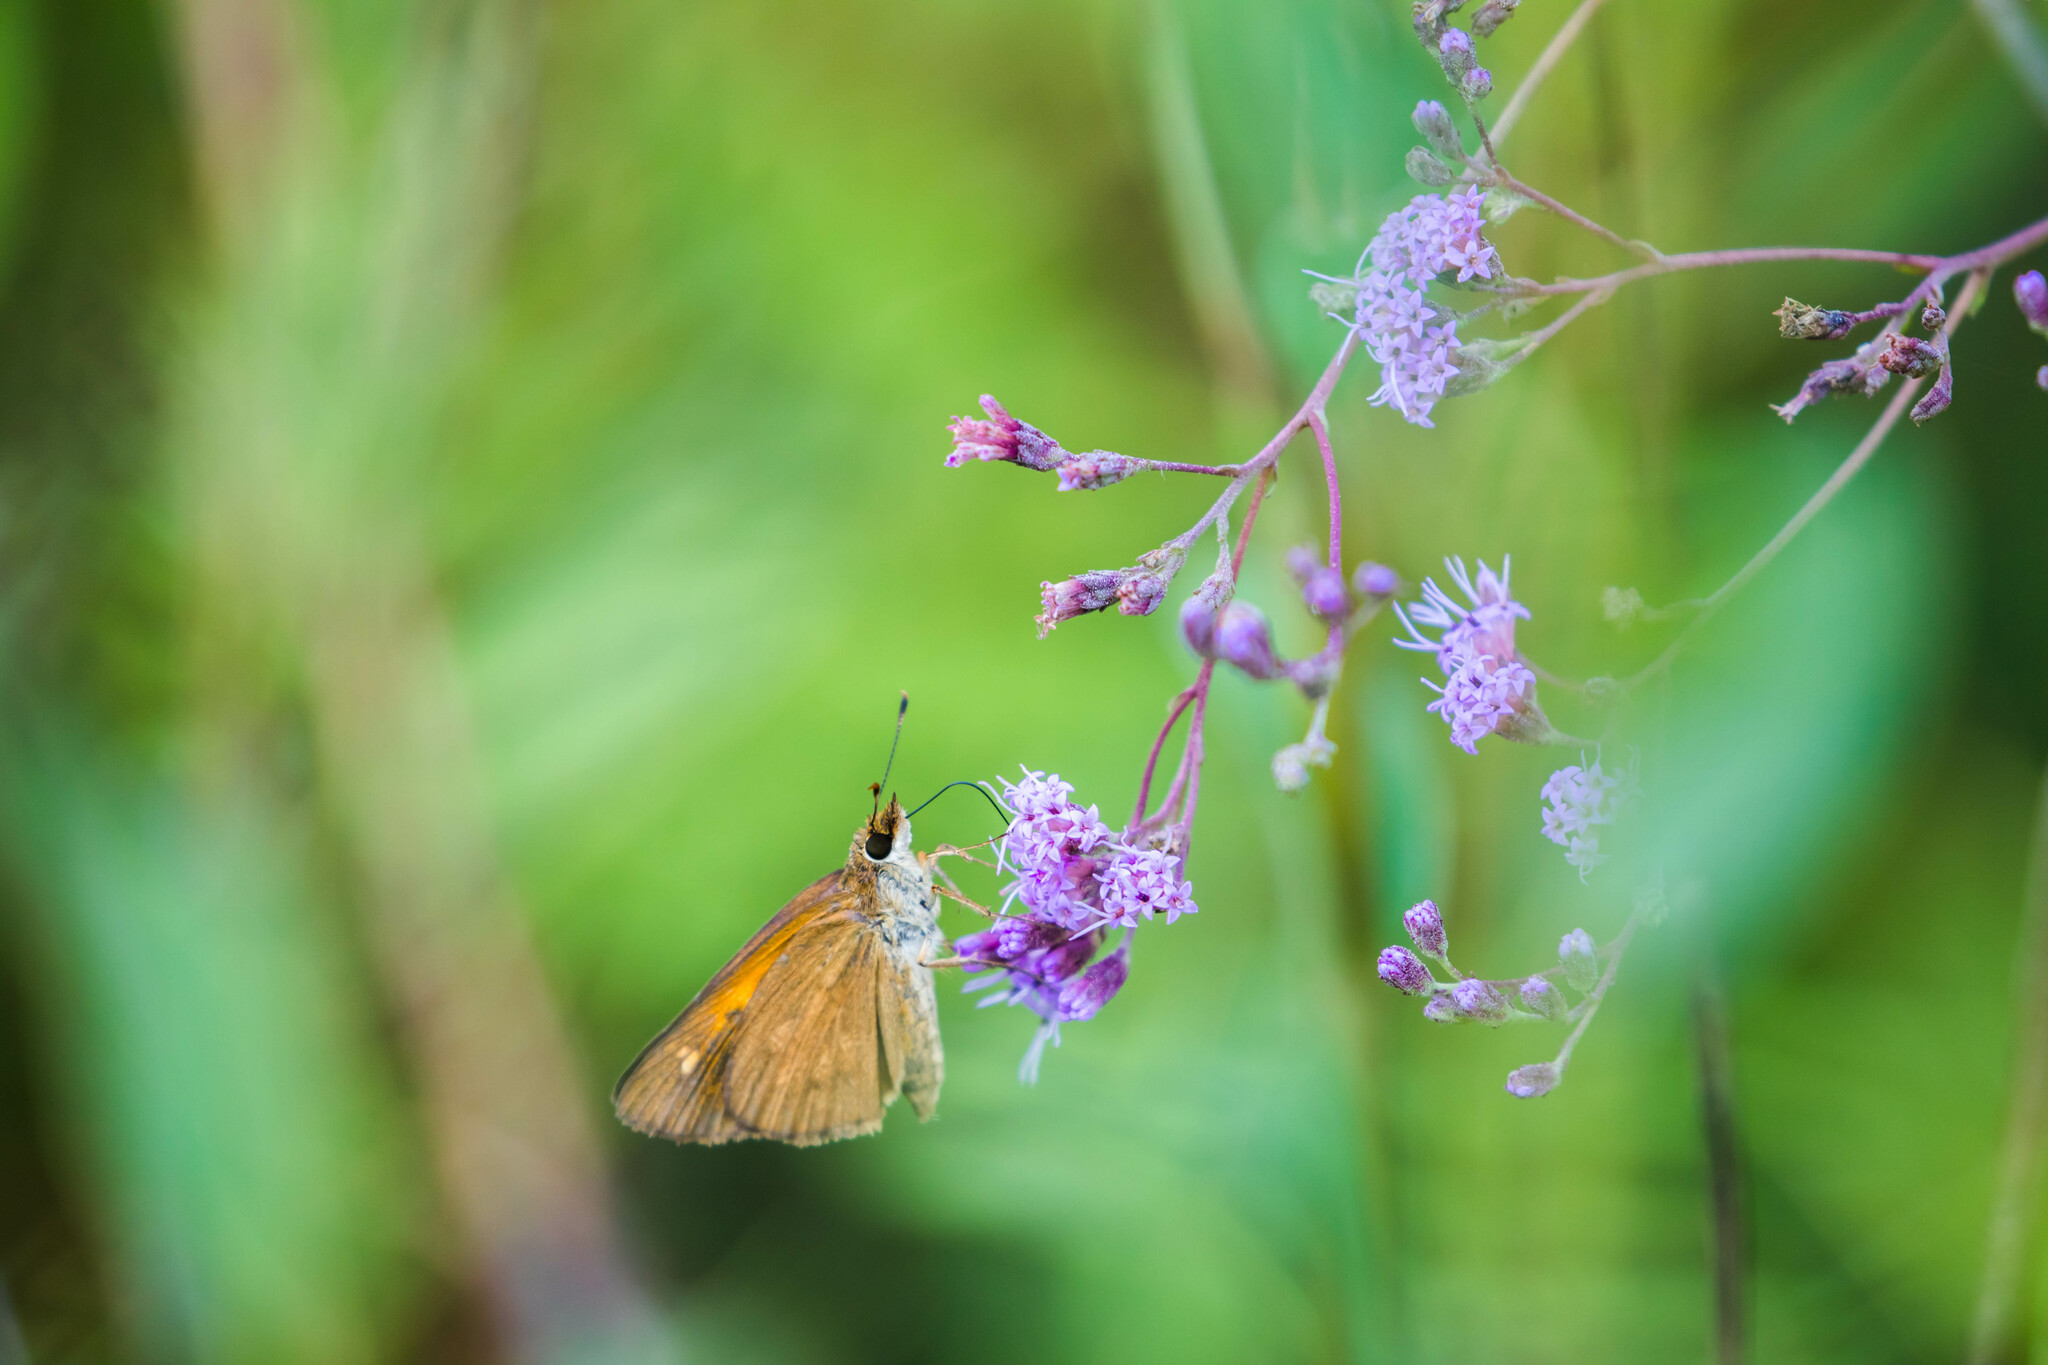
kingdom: Animalia
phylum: Arthropoda
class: Insecta
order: Lepidoptera
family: Hesperiidae
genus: Poanes
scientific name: Poanes viator
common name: Broad-winged skipper
